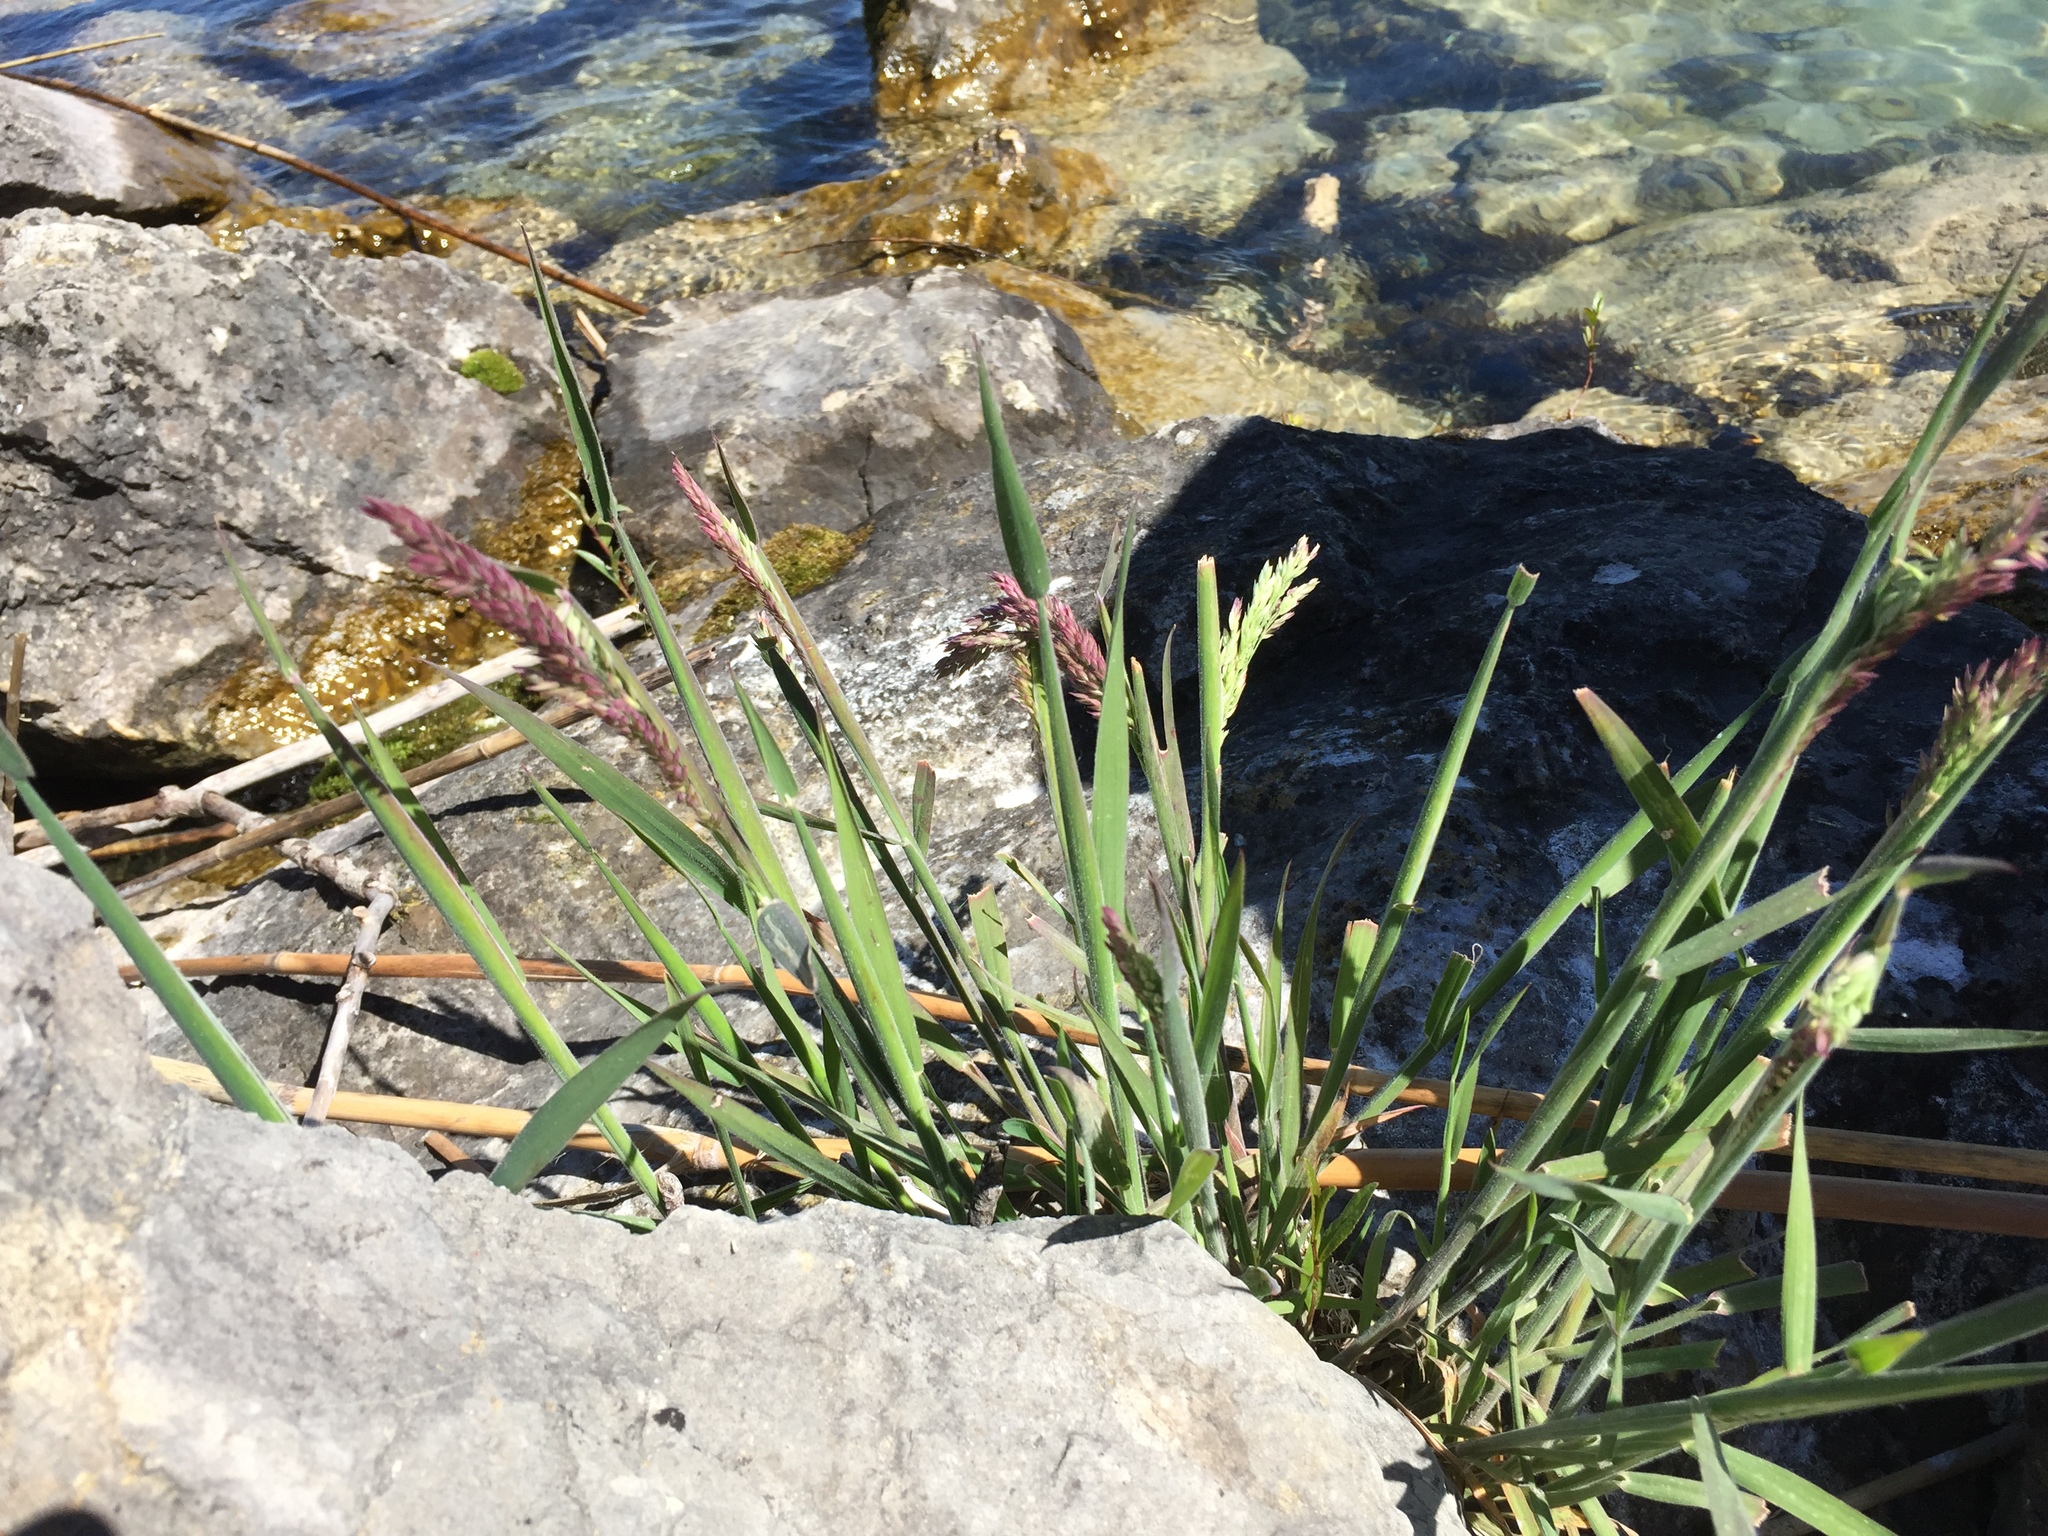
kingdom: Plantae
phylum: Tracheophyta
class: Liliopsida
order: Poales
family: Poaceae
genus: Holcus
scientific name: Holcus lanatus
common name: Yorkshire-fog
